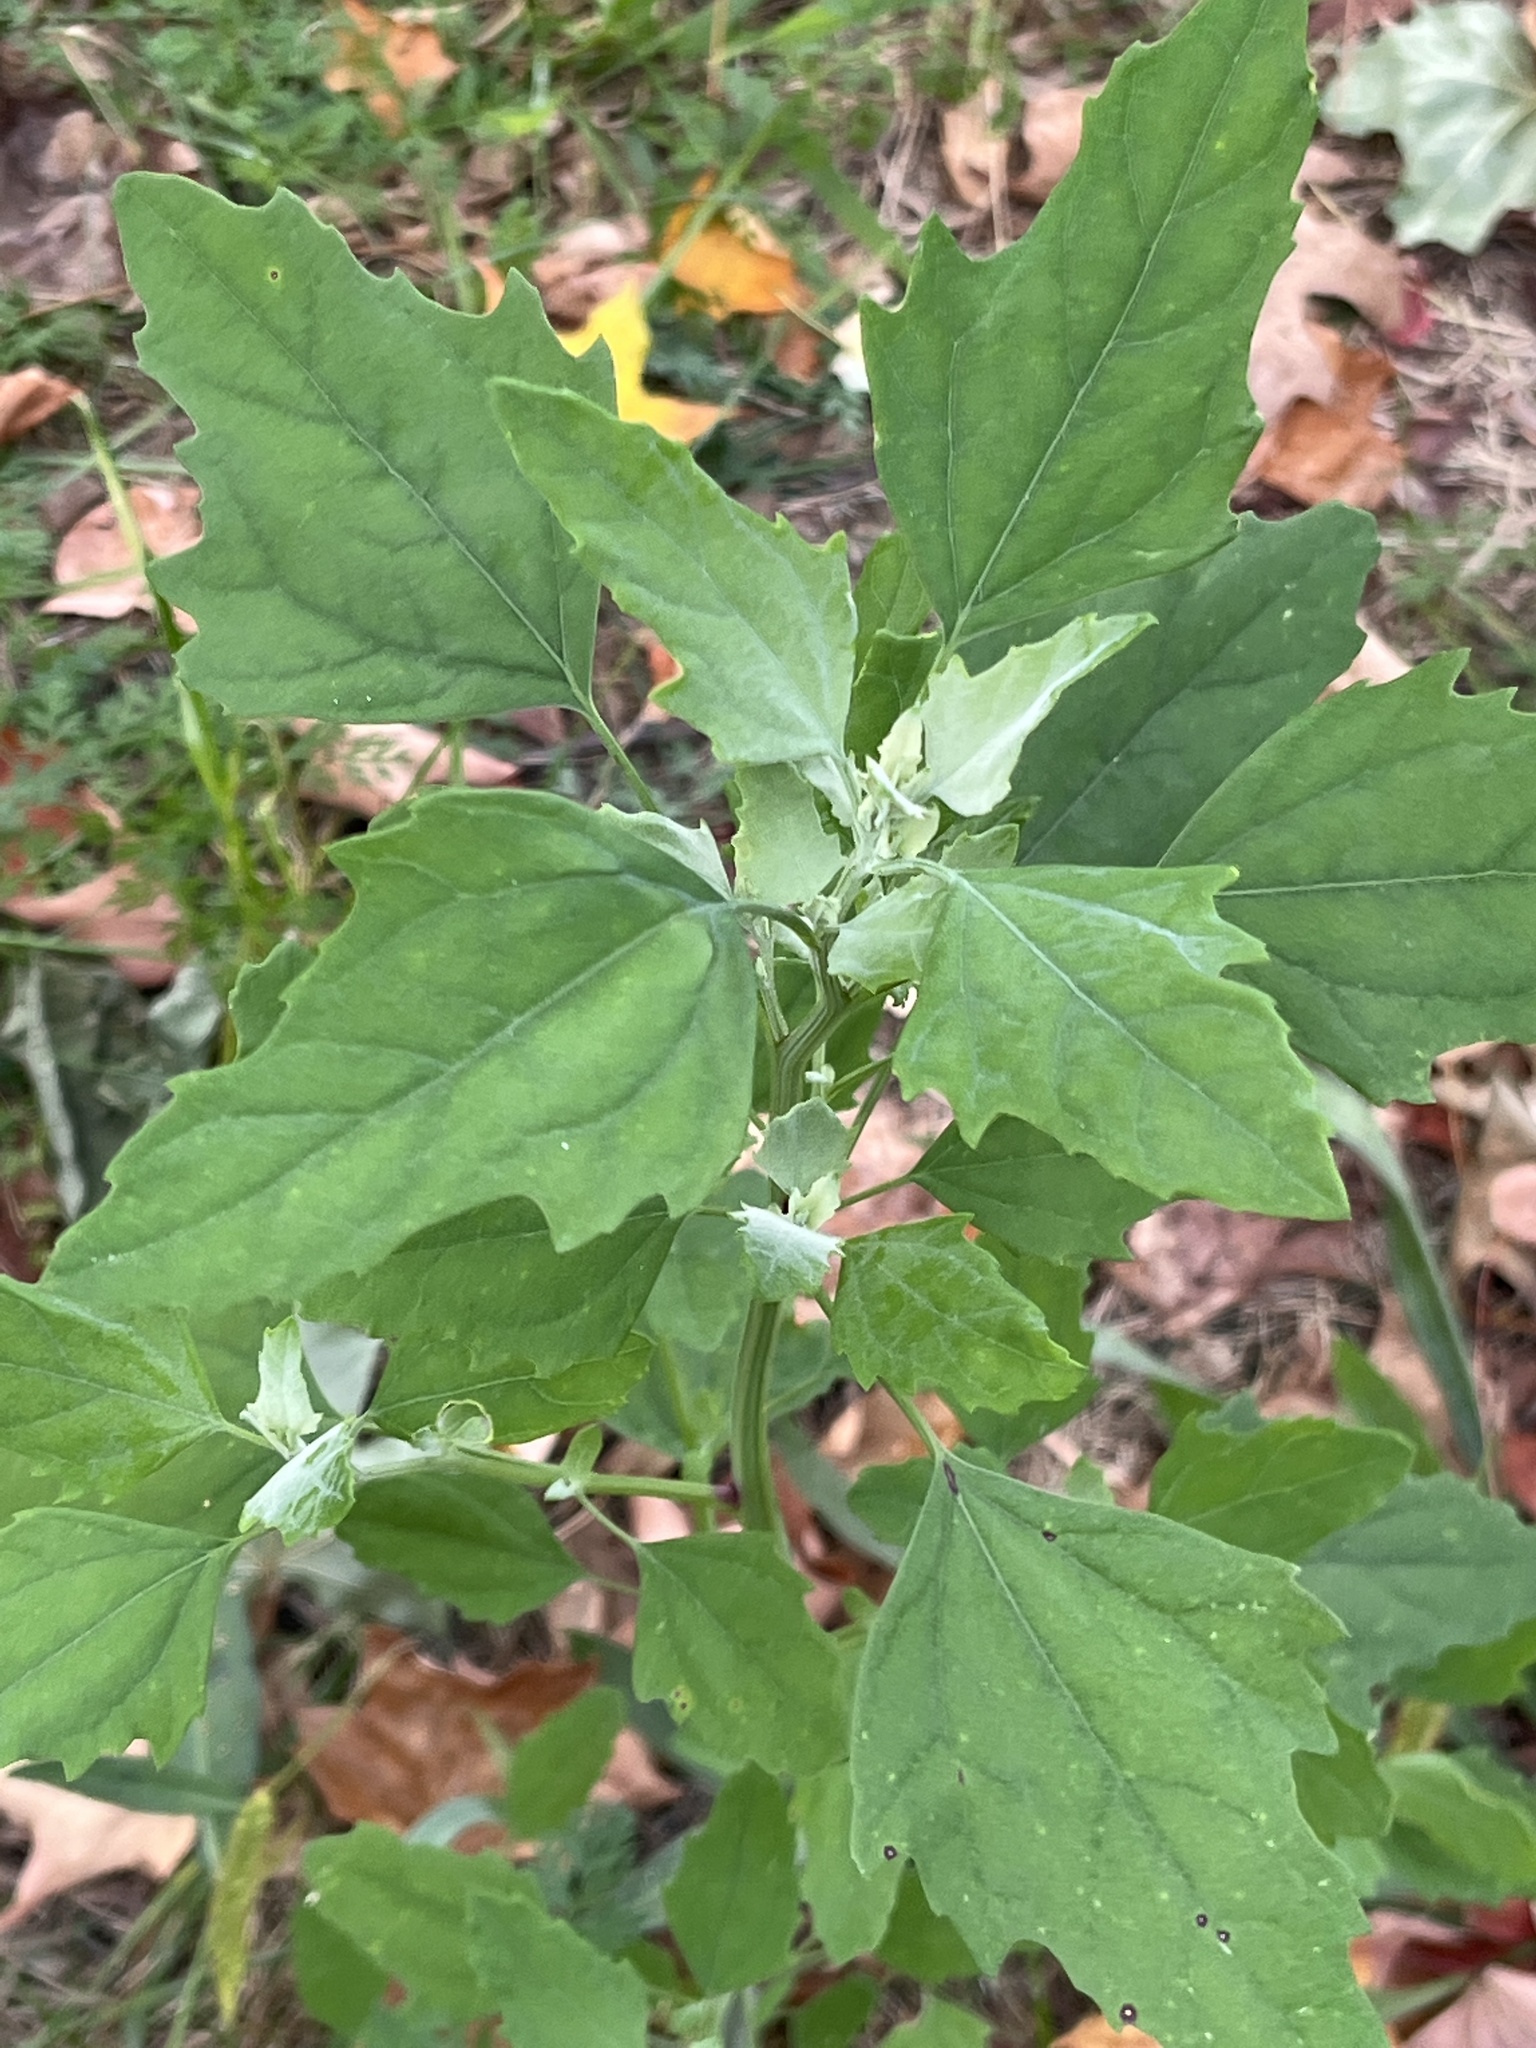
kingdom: Plantae
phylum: Tracheophyta
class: Magnoliopsida
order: Caryophyllales
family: Amaranthaceae
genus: Chenopodium
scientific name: Chenopodium album
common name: Fat-hen
